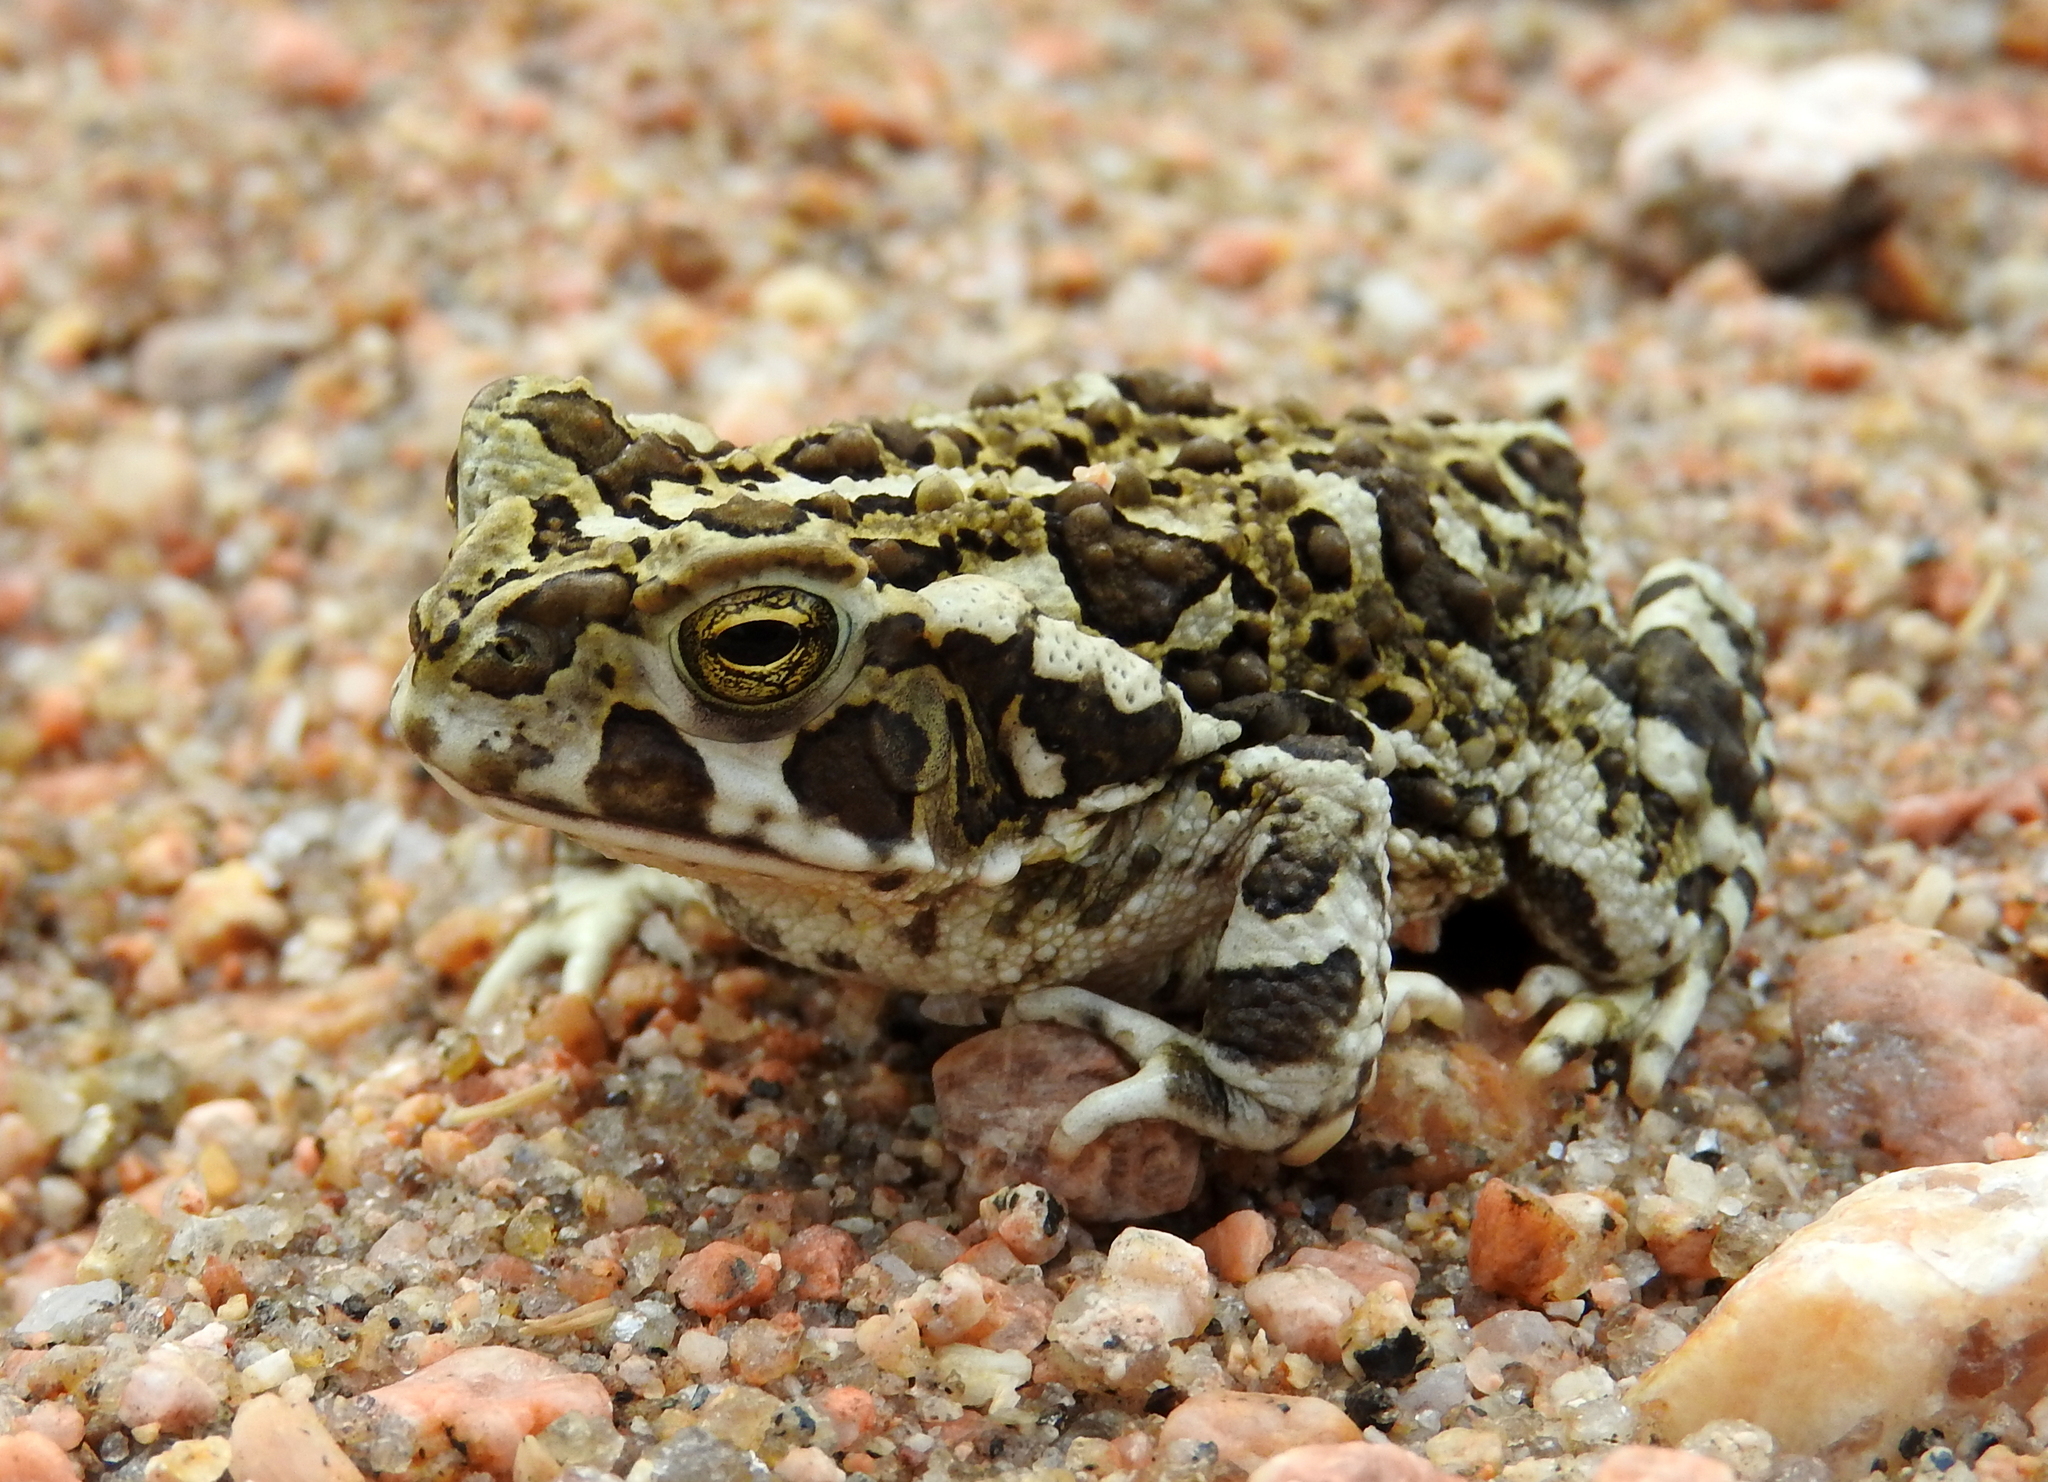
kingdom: Animalia
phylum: Chordata
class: Amphibia
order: Anura
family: Bufonidae
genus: Rhinella
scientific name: Rhinella arenarum
